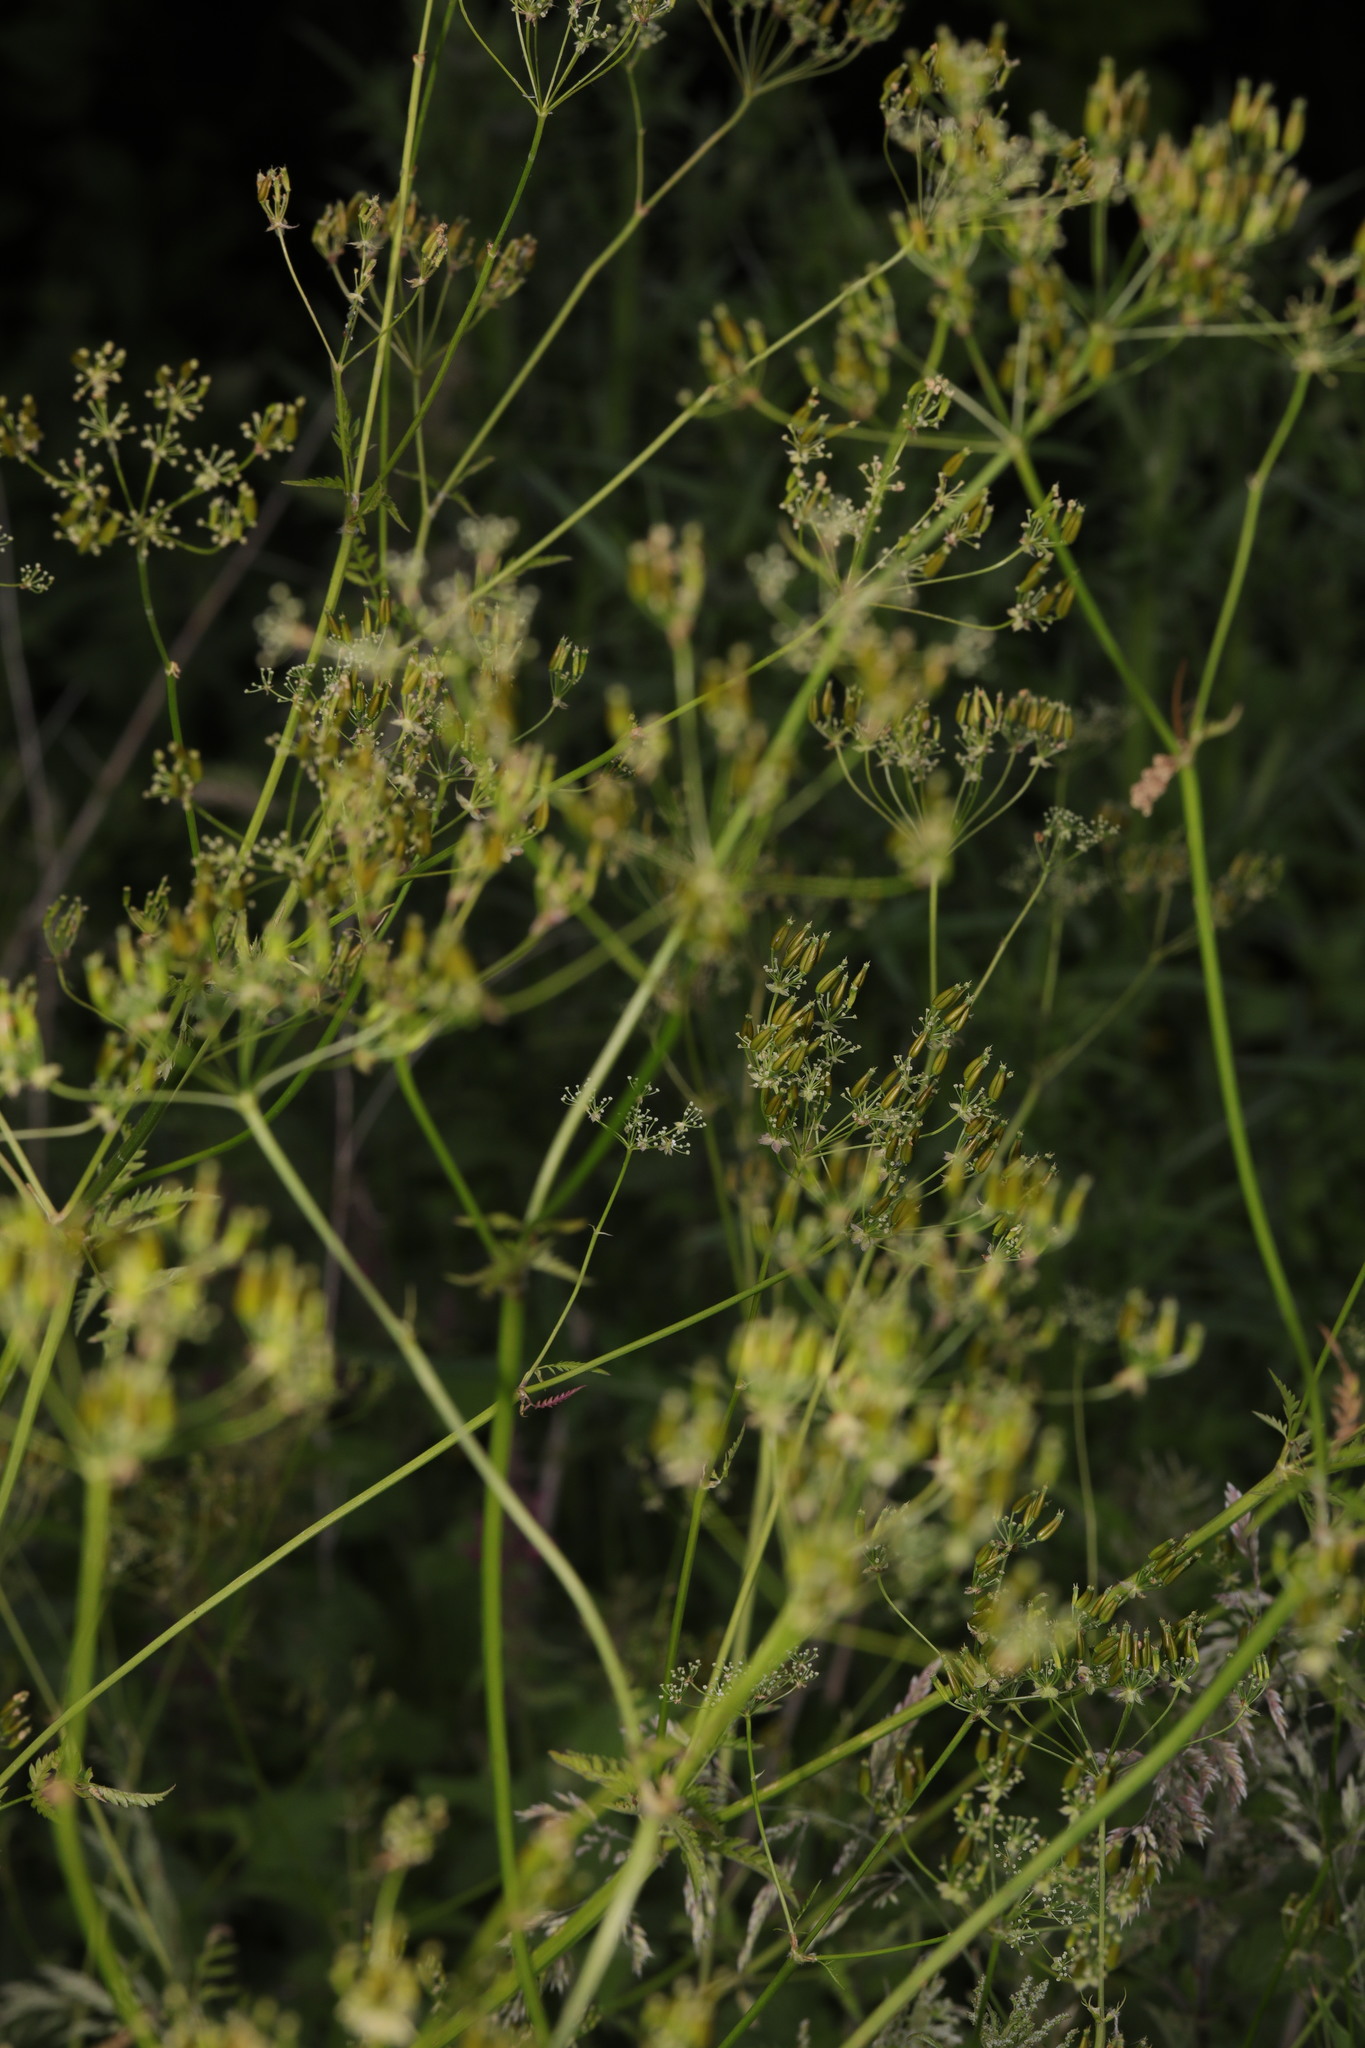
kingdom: Plantae
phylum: Tracheophyta
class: Magnoliopsida
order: Apiales
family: Apiaceae
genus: Anthriscus
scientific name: Anthriscus sylvestris
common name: Cow parsley
